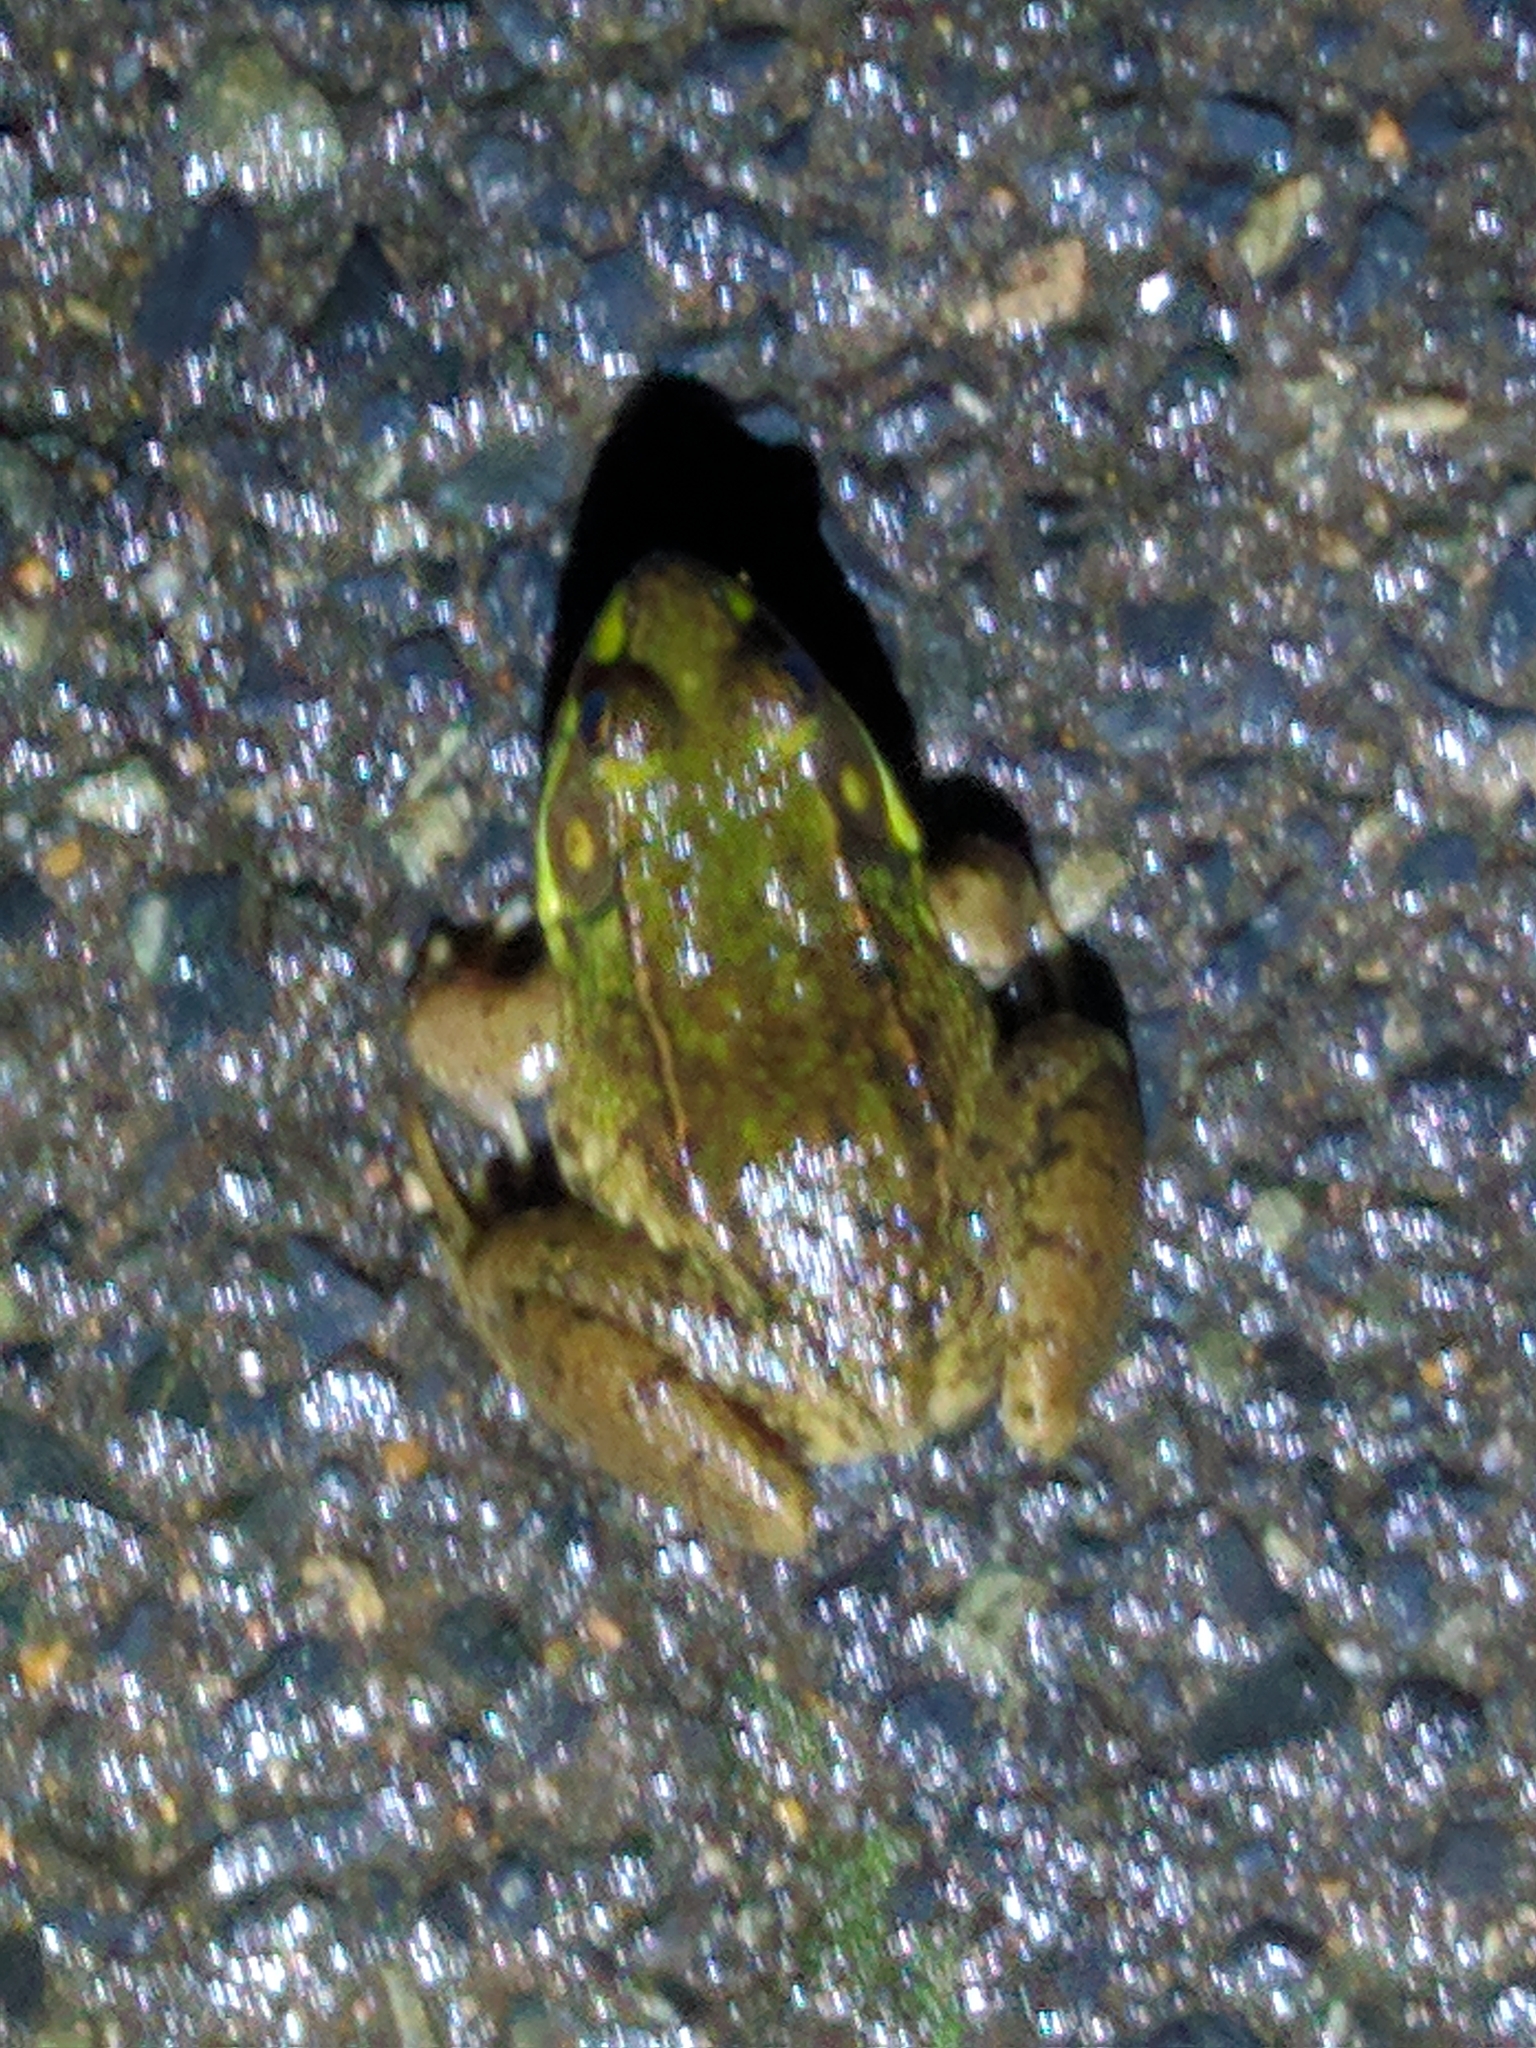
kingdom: Animalia
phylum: Chordata
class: Amphibia
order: Anura
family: Ranidae
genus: Lithobates
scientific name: Lithobates clamitans
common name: Green frog
